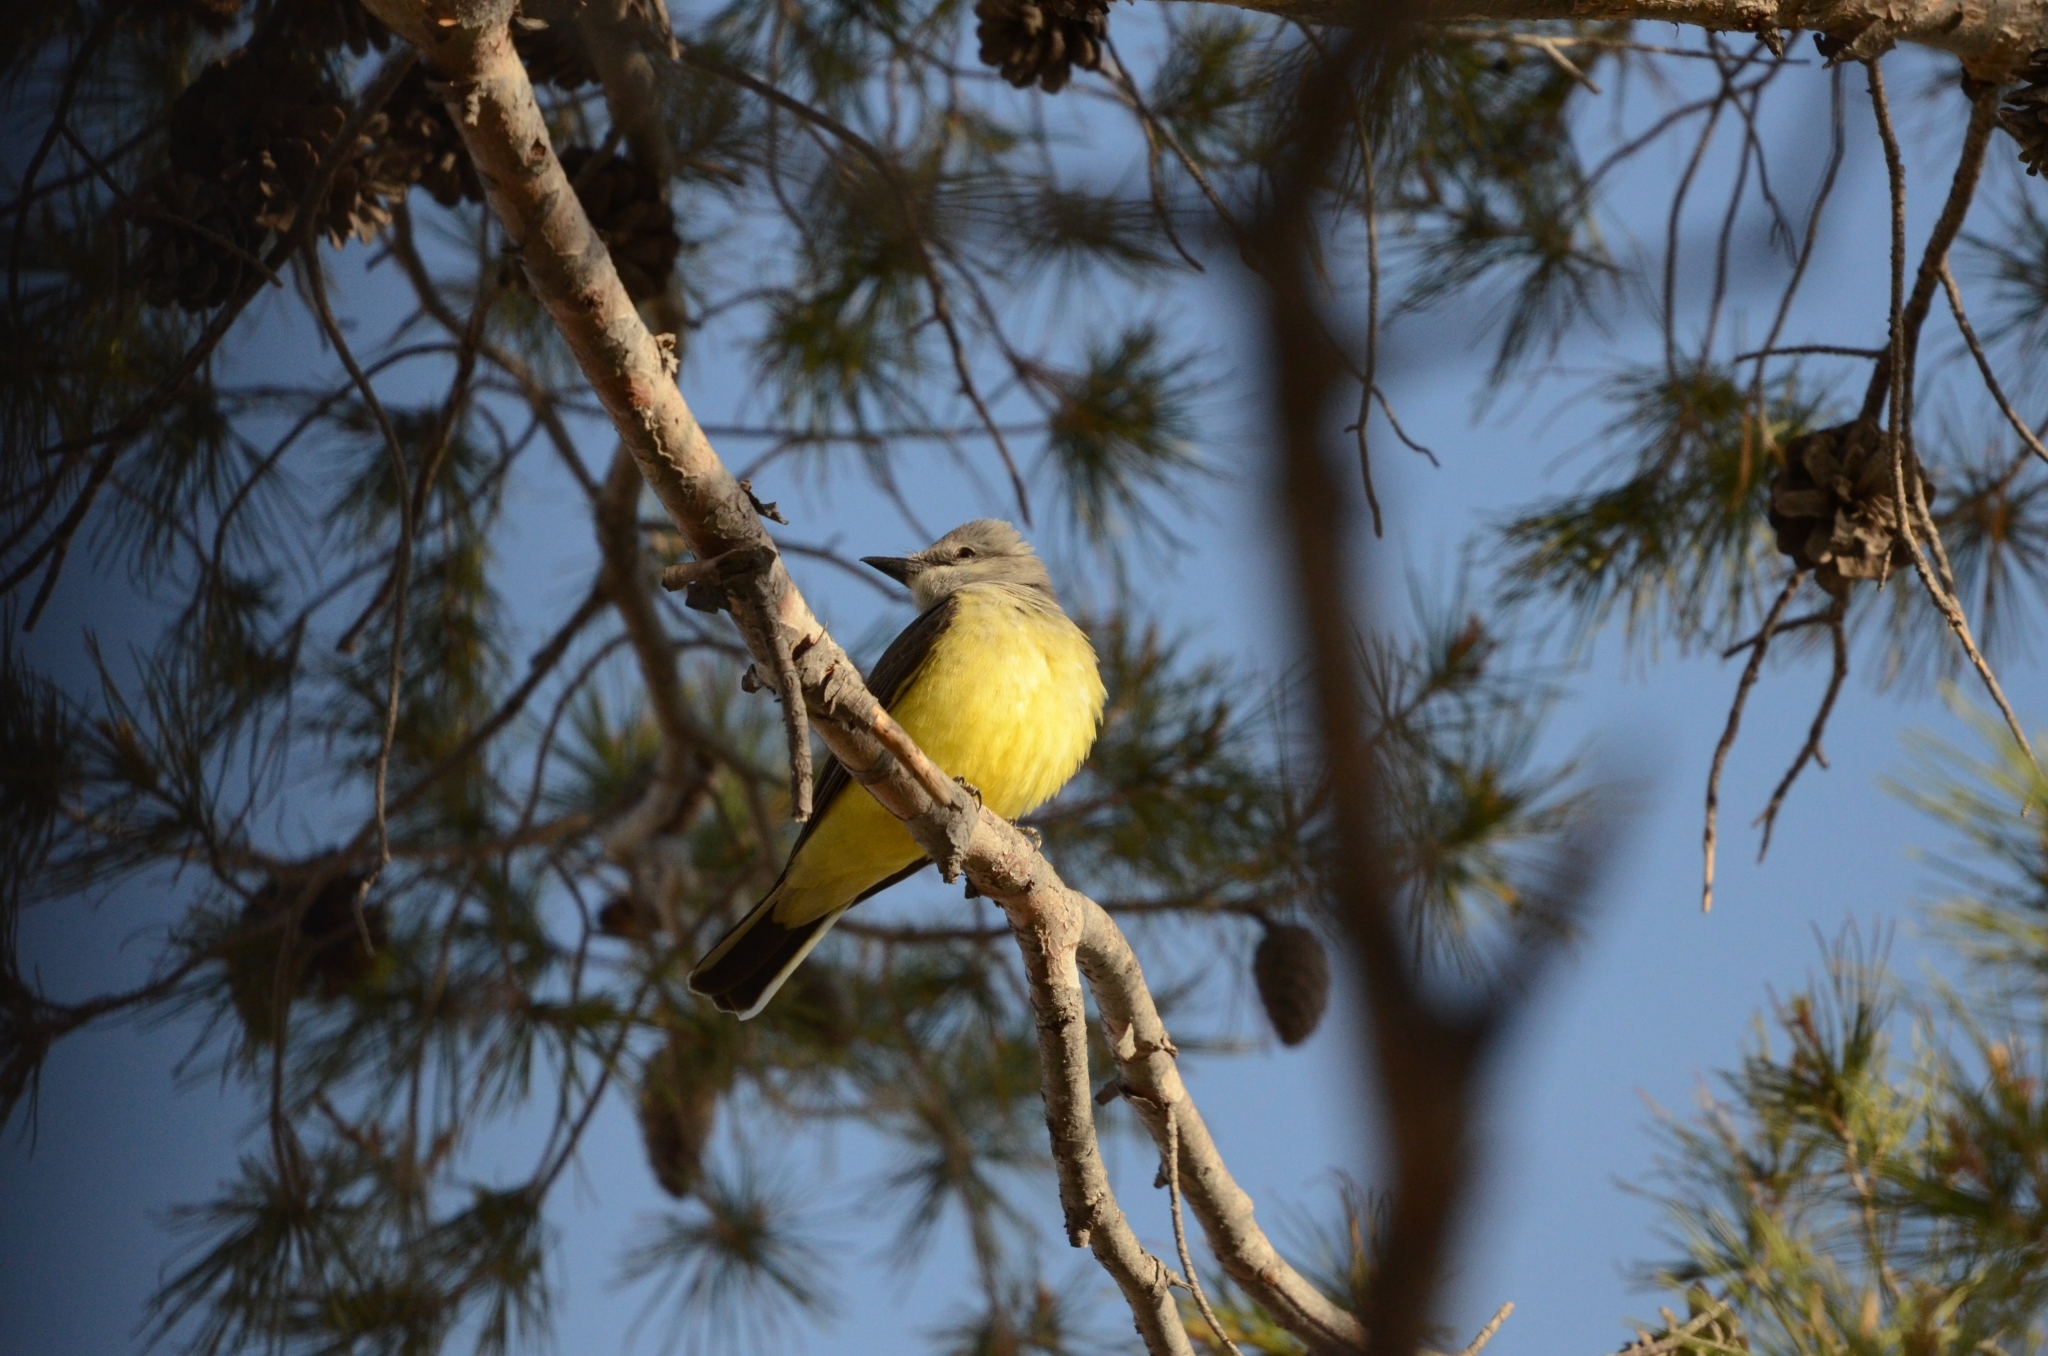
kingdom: Animalia
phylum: Chordata
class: Aves
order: Passeriformes
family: Tyrannidae
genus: Tyrannus
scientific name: Tyrannus verticalis
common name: Western kingbird
